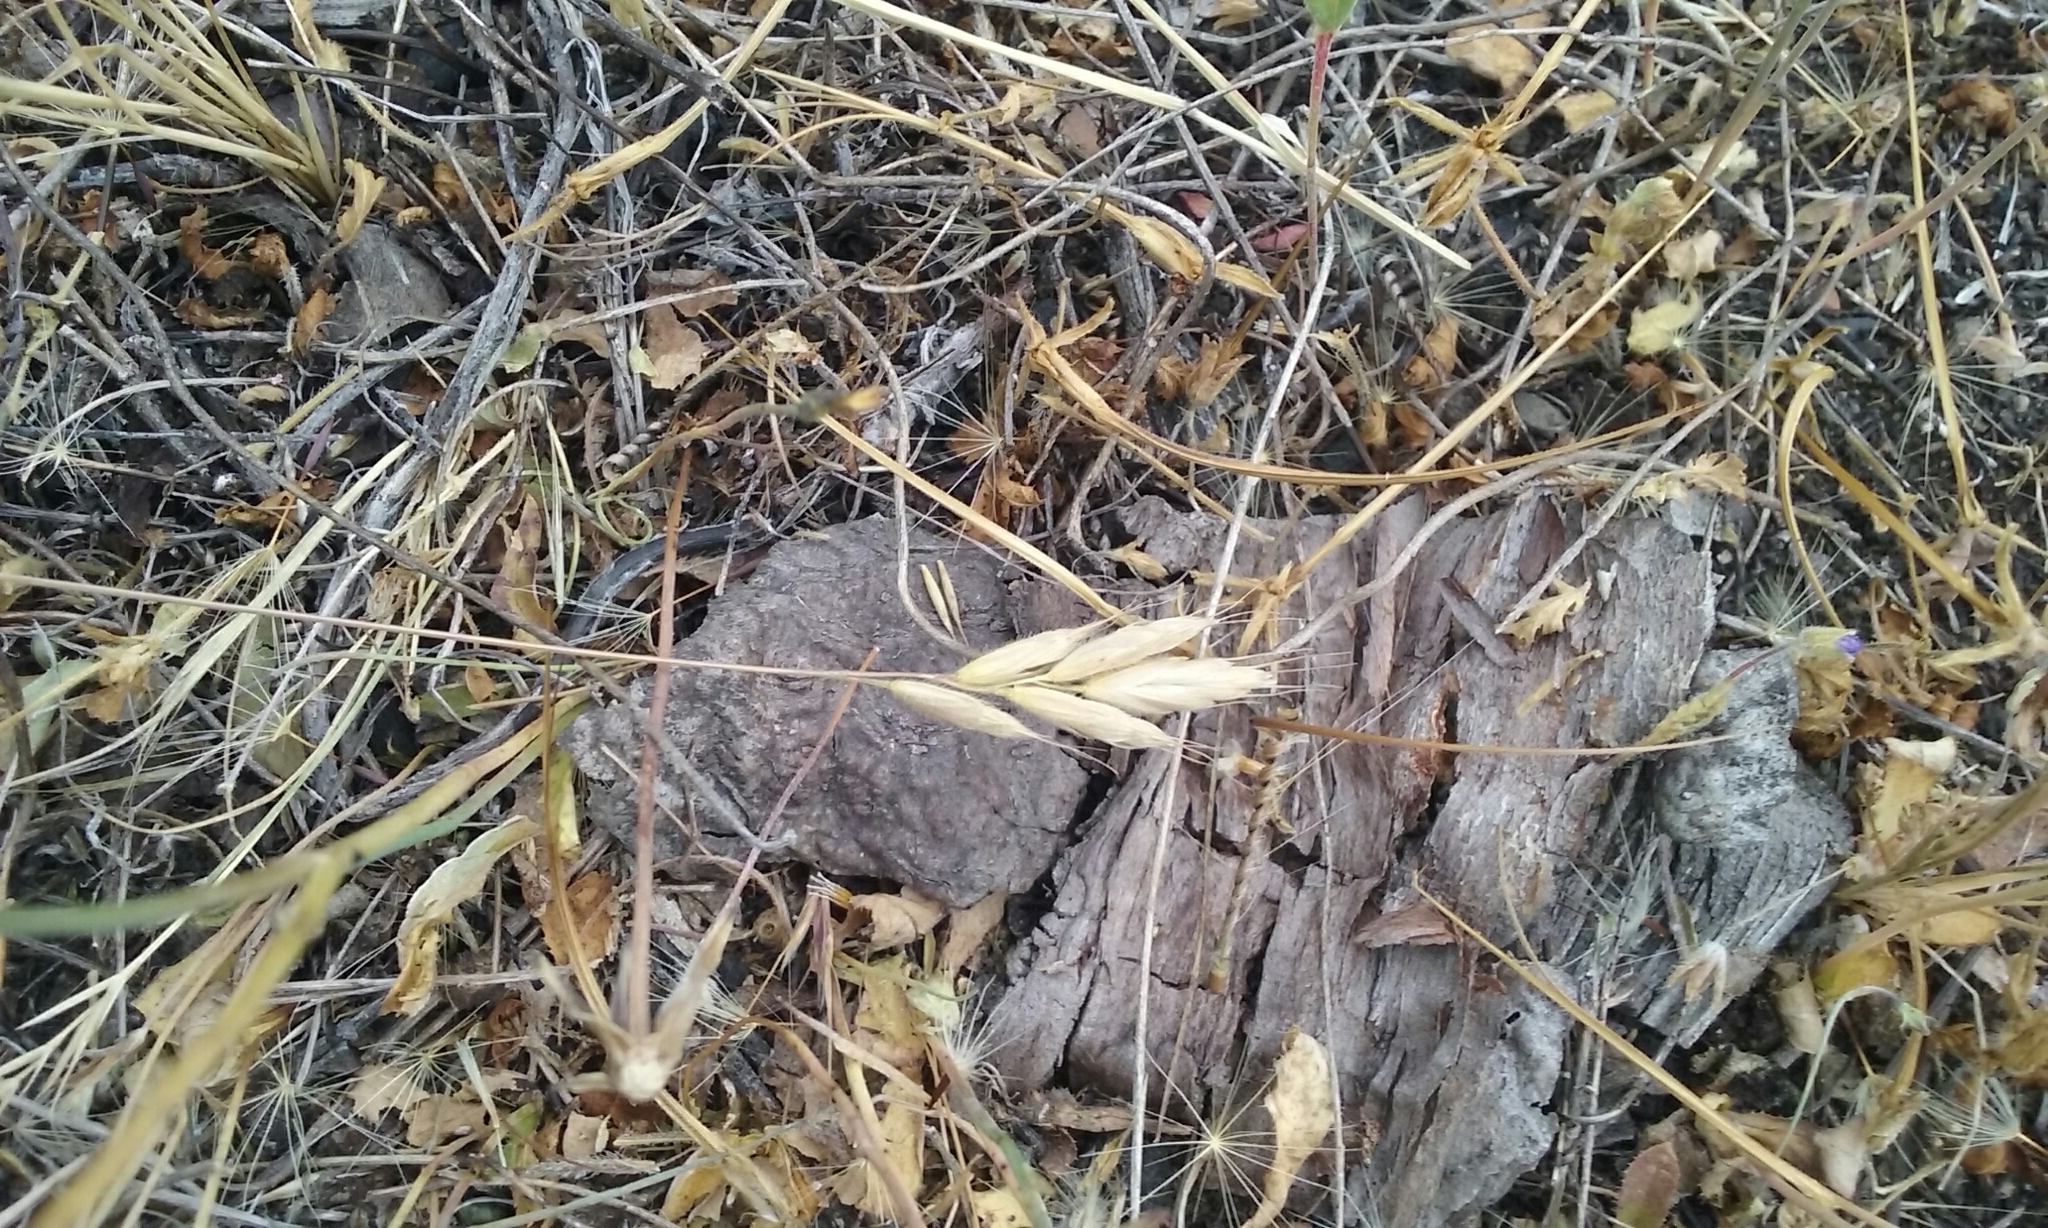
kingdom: Plantae
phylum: Tracheophyta
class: Liliopsida
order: Poales
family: Poaceae
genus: Bromus
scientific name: Bromus hordeaceus
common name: Soft brome
